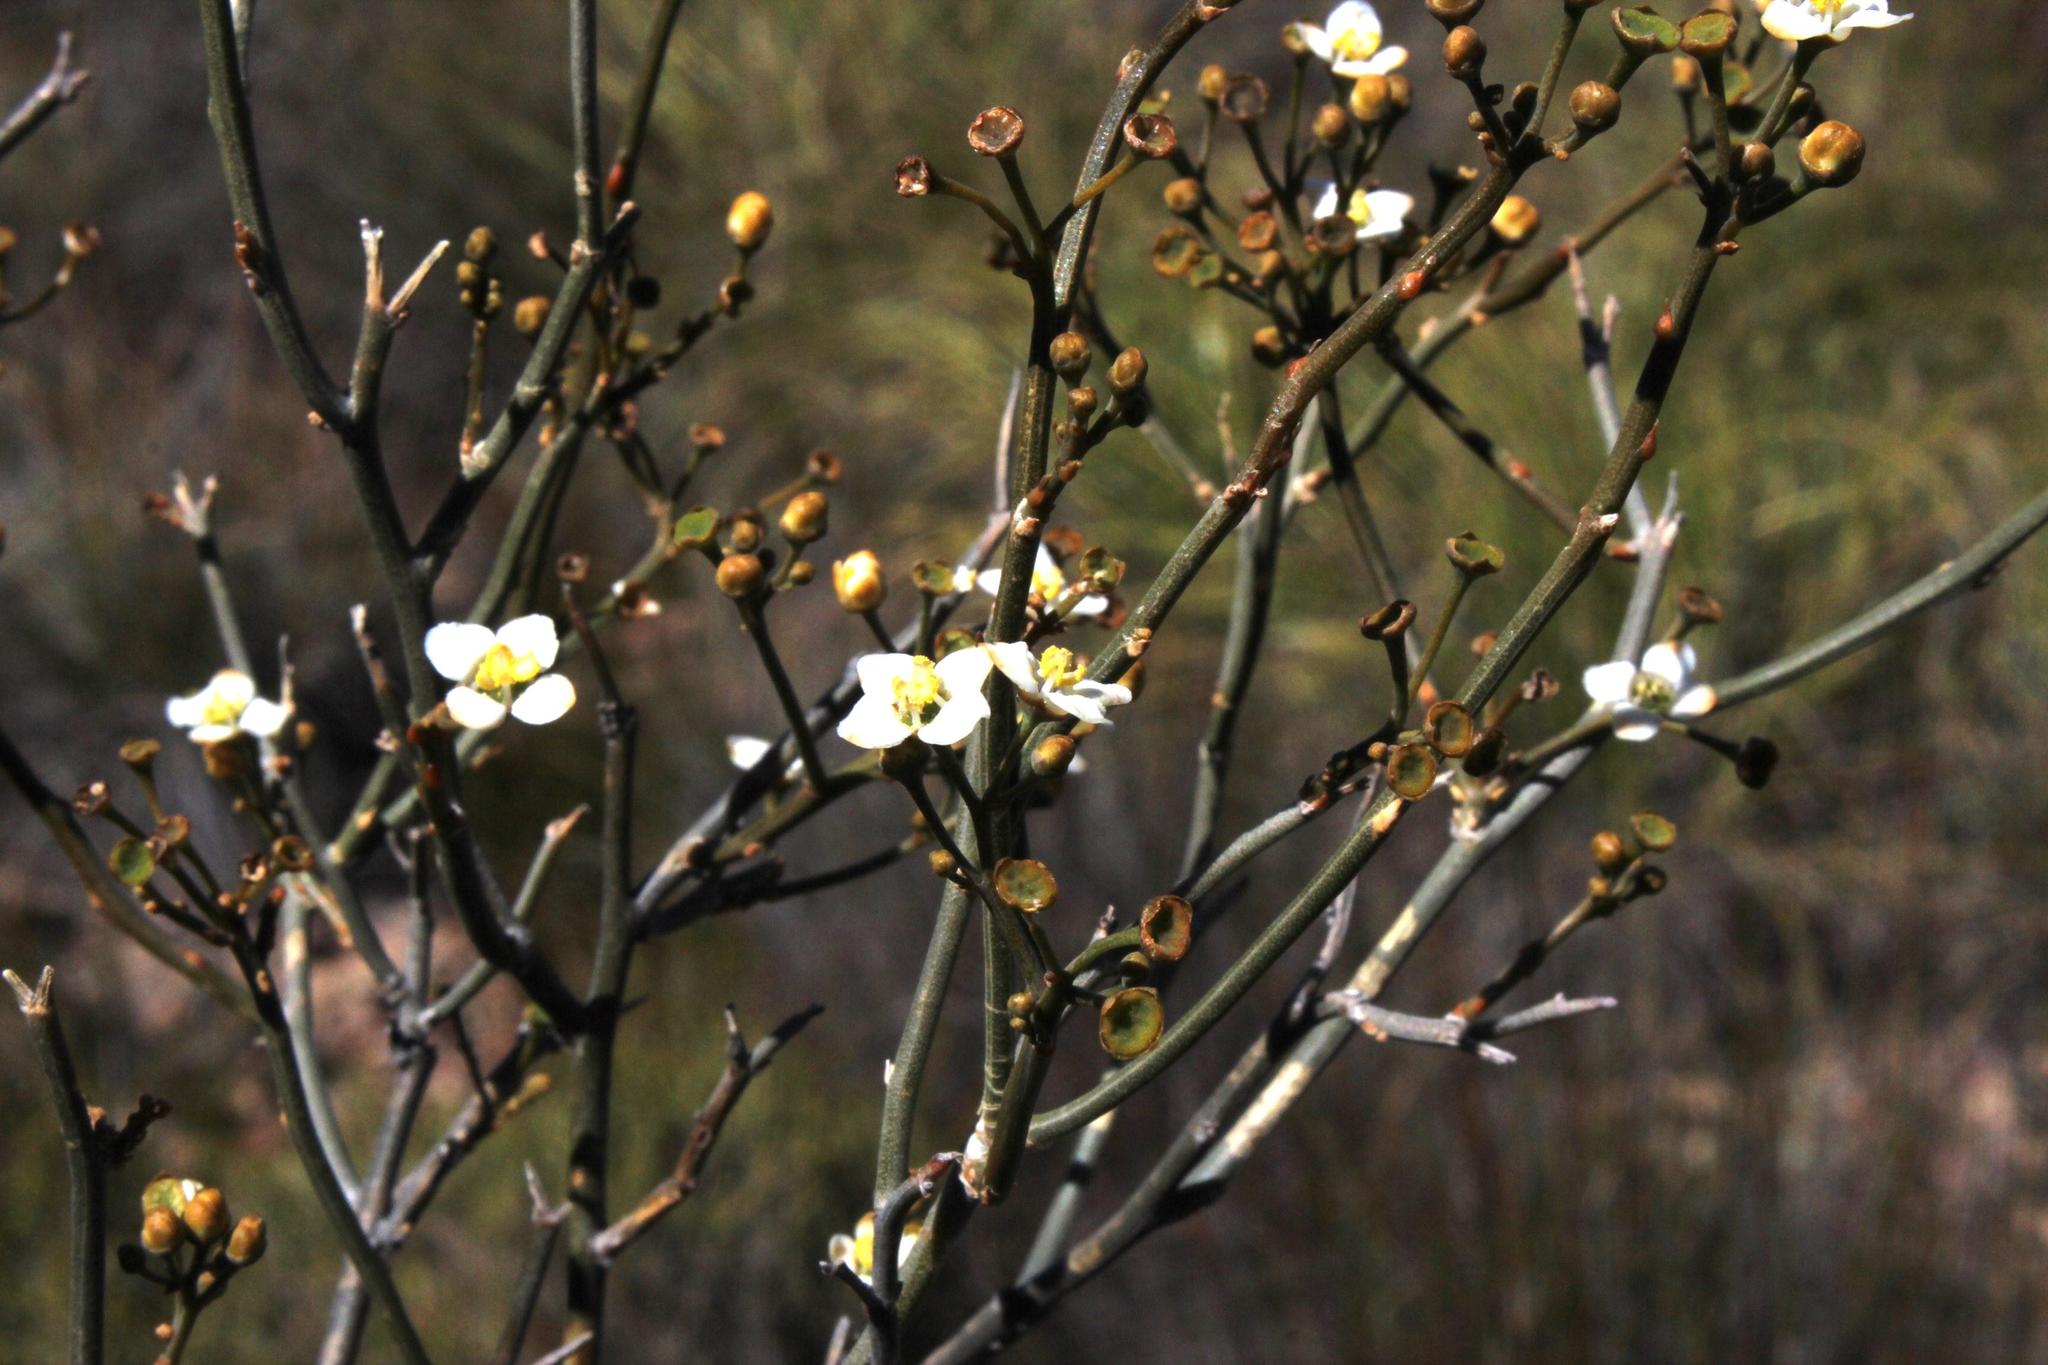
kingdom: Plantae
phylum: Tracheophyta
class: Magnoliopsida
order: Solanales
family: Montiniaceae
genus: Montinia
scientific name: Montinia caryophyllacea
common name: Wild clove-bush
